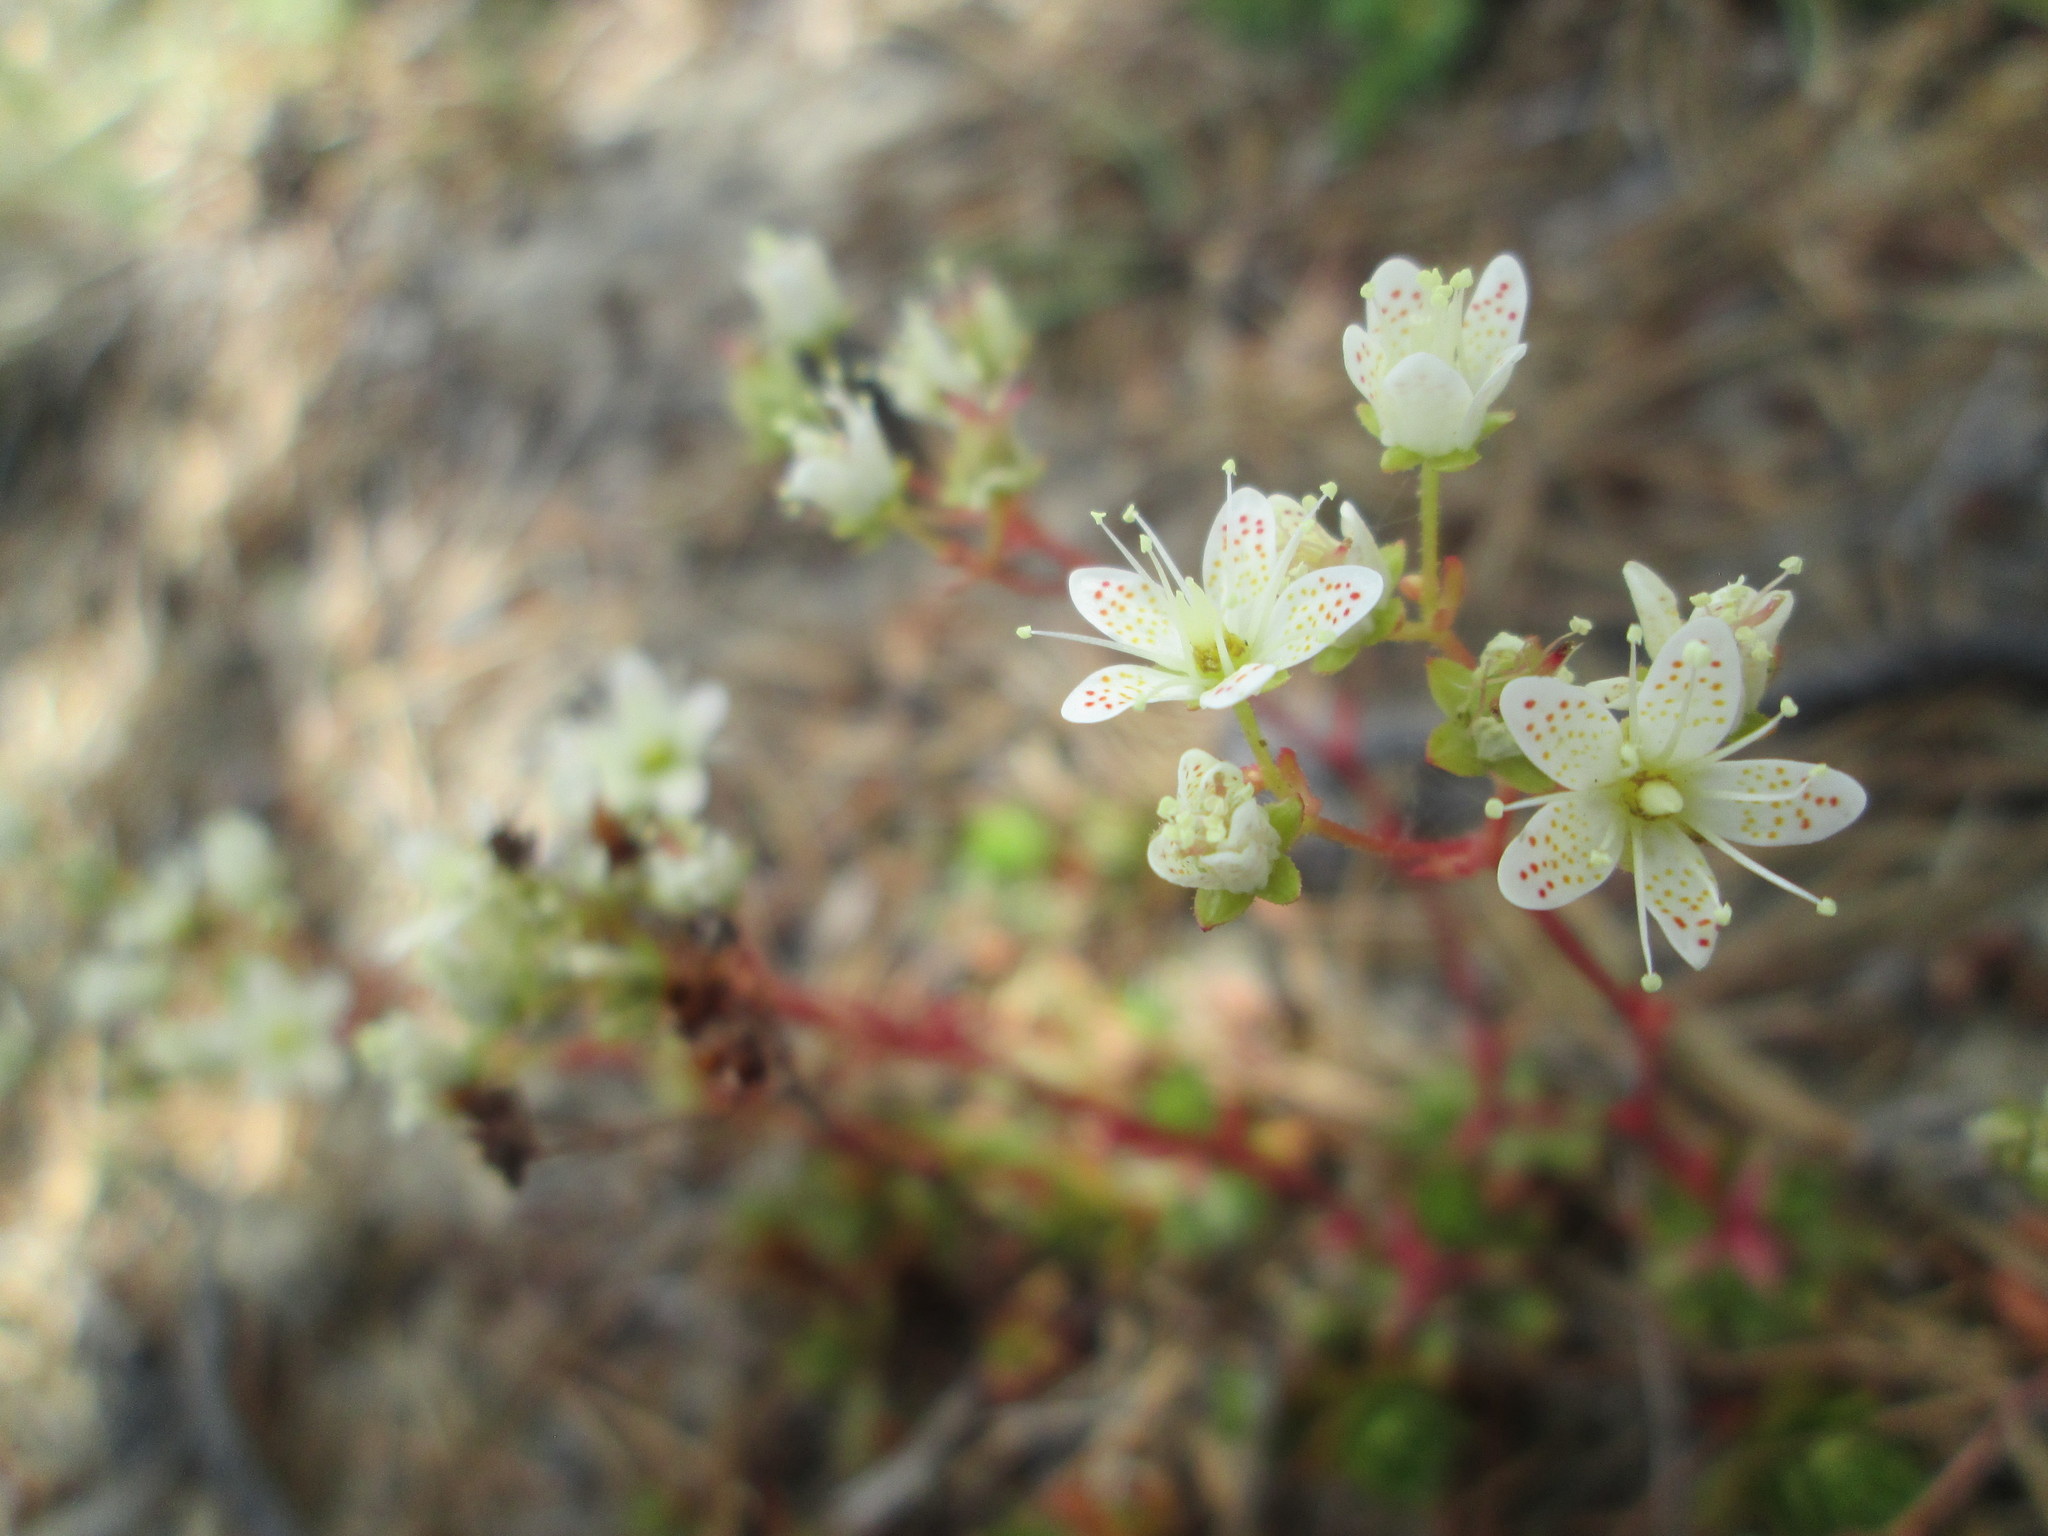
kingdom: Plantae
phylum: Tracheophyta
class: Magnoliopsida
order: Saxifragales
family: Saxifragaceae
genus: Saxifraga
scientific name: Saxifraga tricuspidata
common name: Prickly saxifrage
